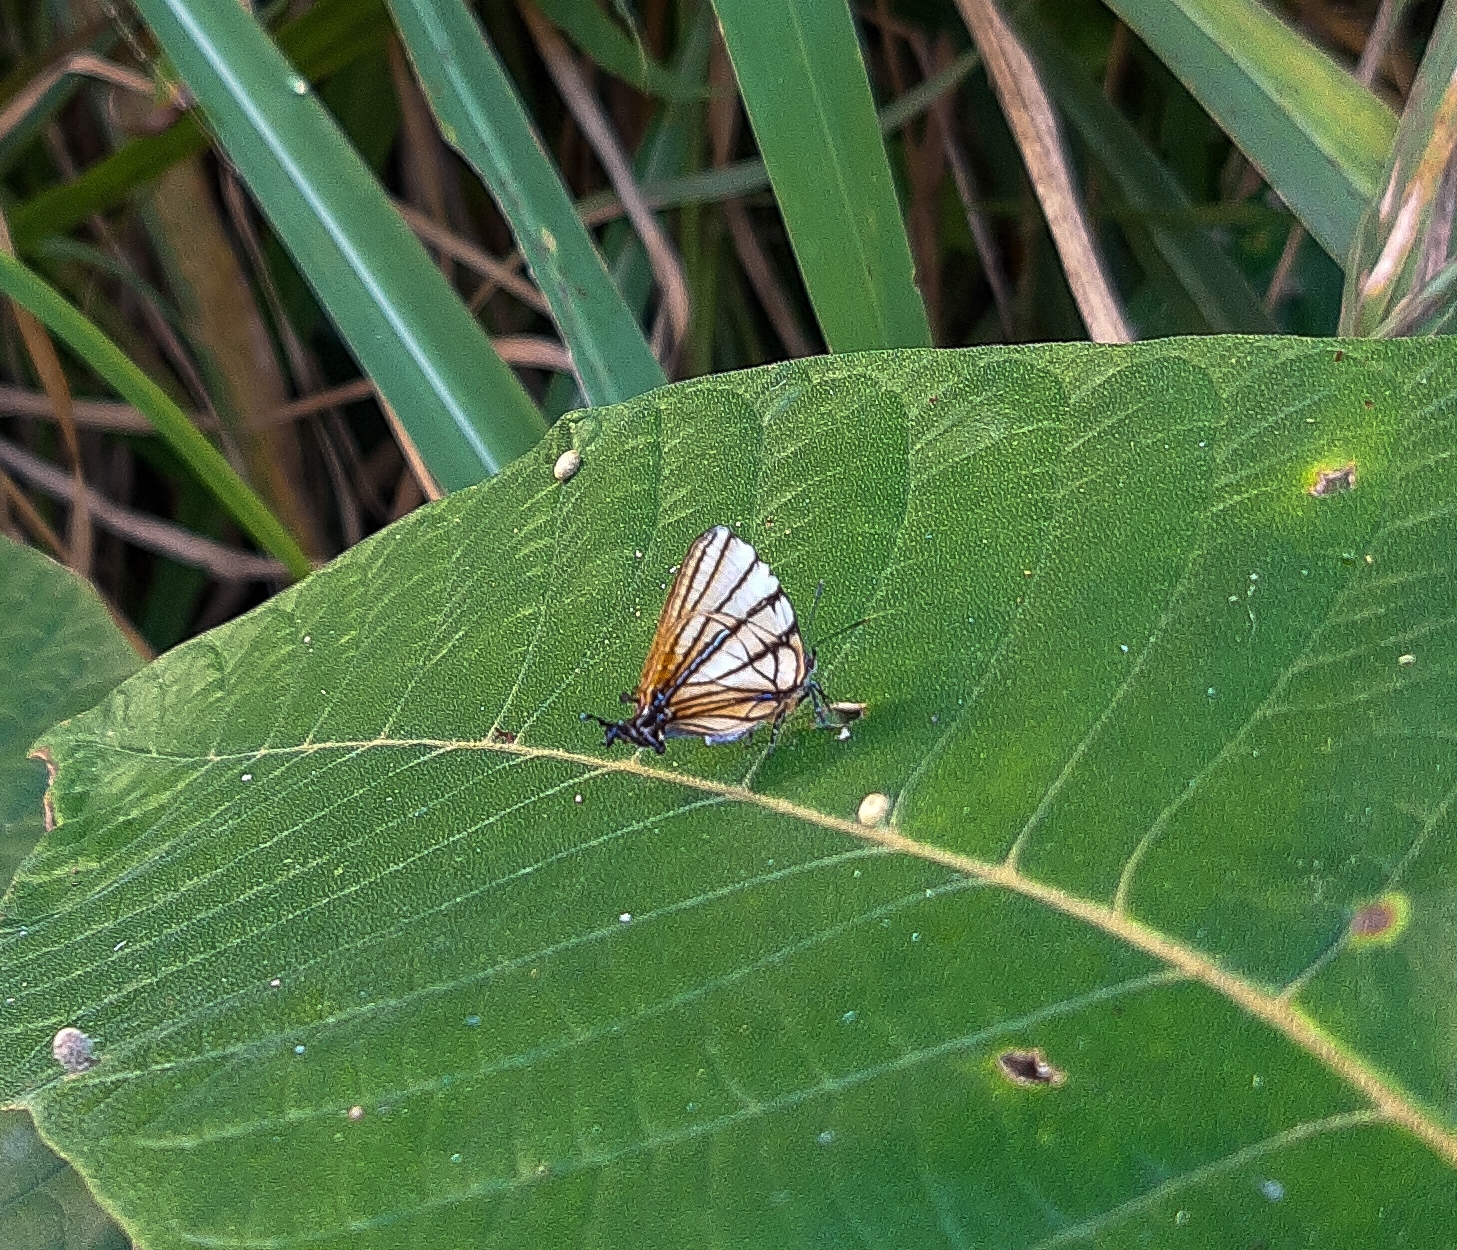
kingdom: Animalia
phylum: Arthropoda
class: Insecta
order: Lepidoptera
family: Lycaenidae
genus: Arawacus
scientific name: Arawacus melibaeus
